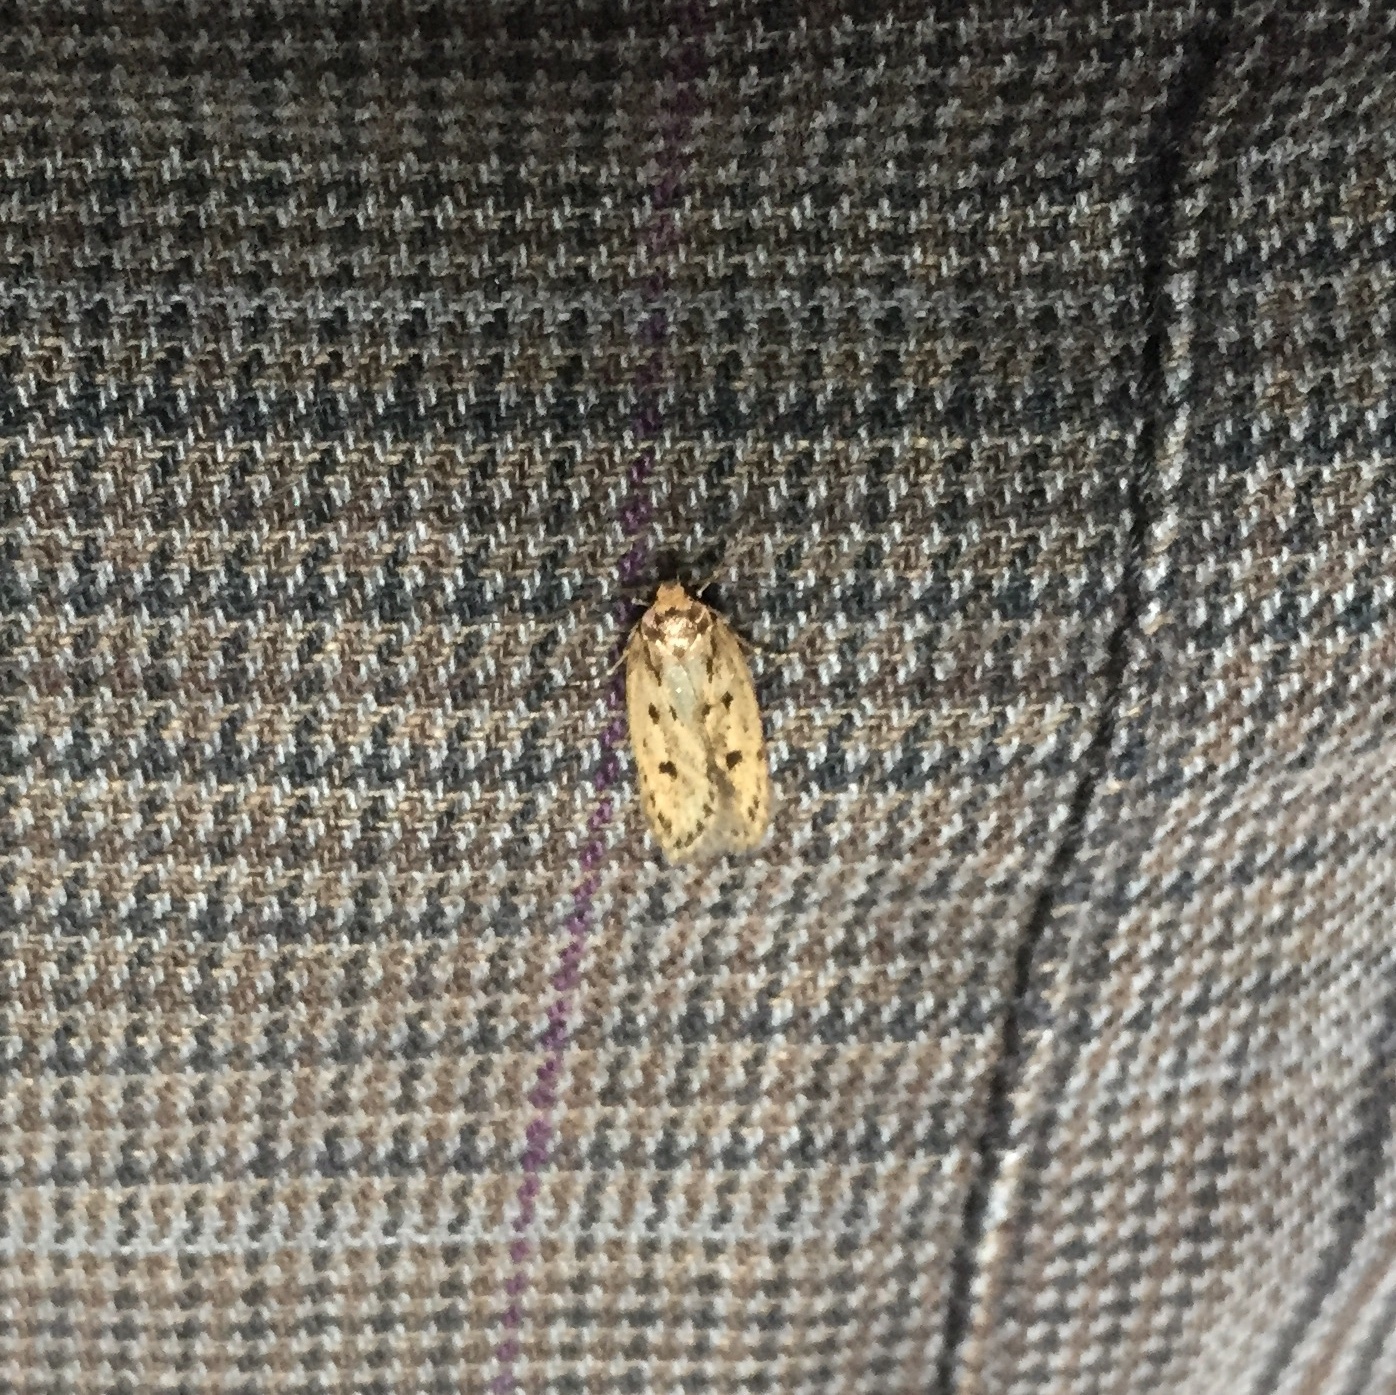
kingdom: Animalia
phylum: Arthropoda
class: Insecta
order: Lepidoptera
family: Oecophoridae
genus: Hofmannophila
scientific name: Hofmannophila pseudospretella
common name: Brown house moth
